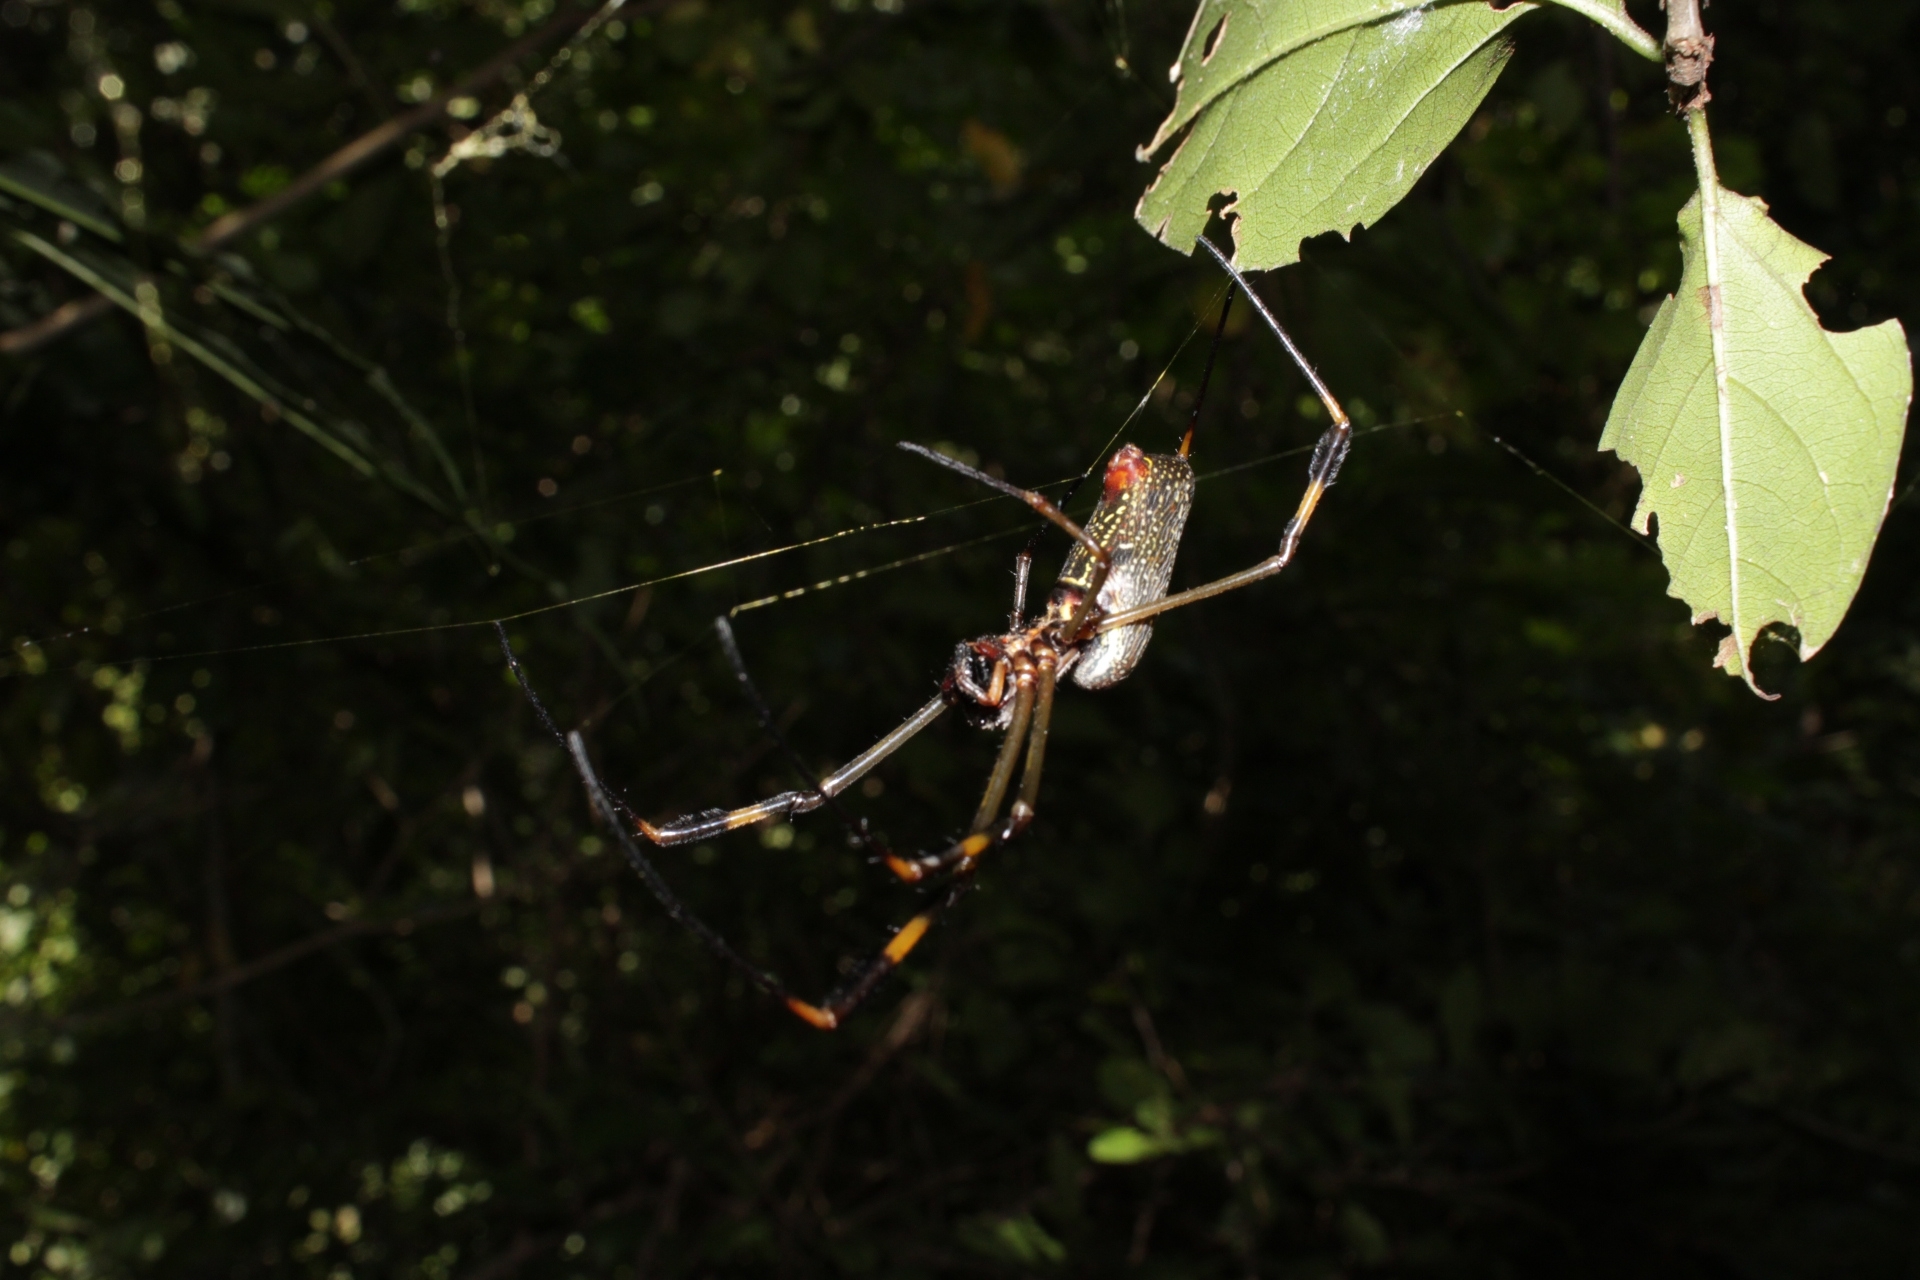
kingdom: Animalia
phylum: Arthropoda
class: Arachnida
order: Araneae
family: Araneidae
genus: Trichonephila
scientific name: Trichonephila clavipes
